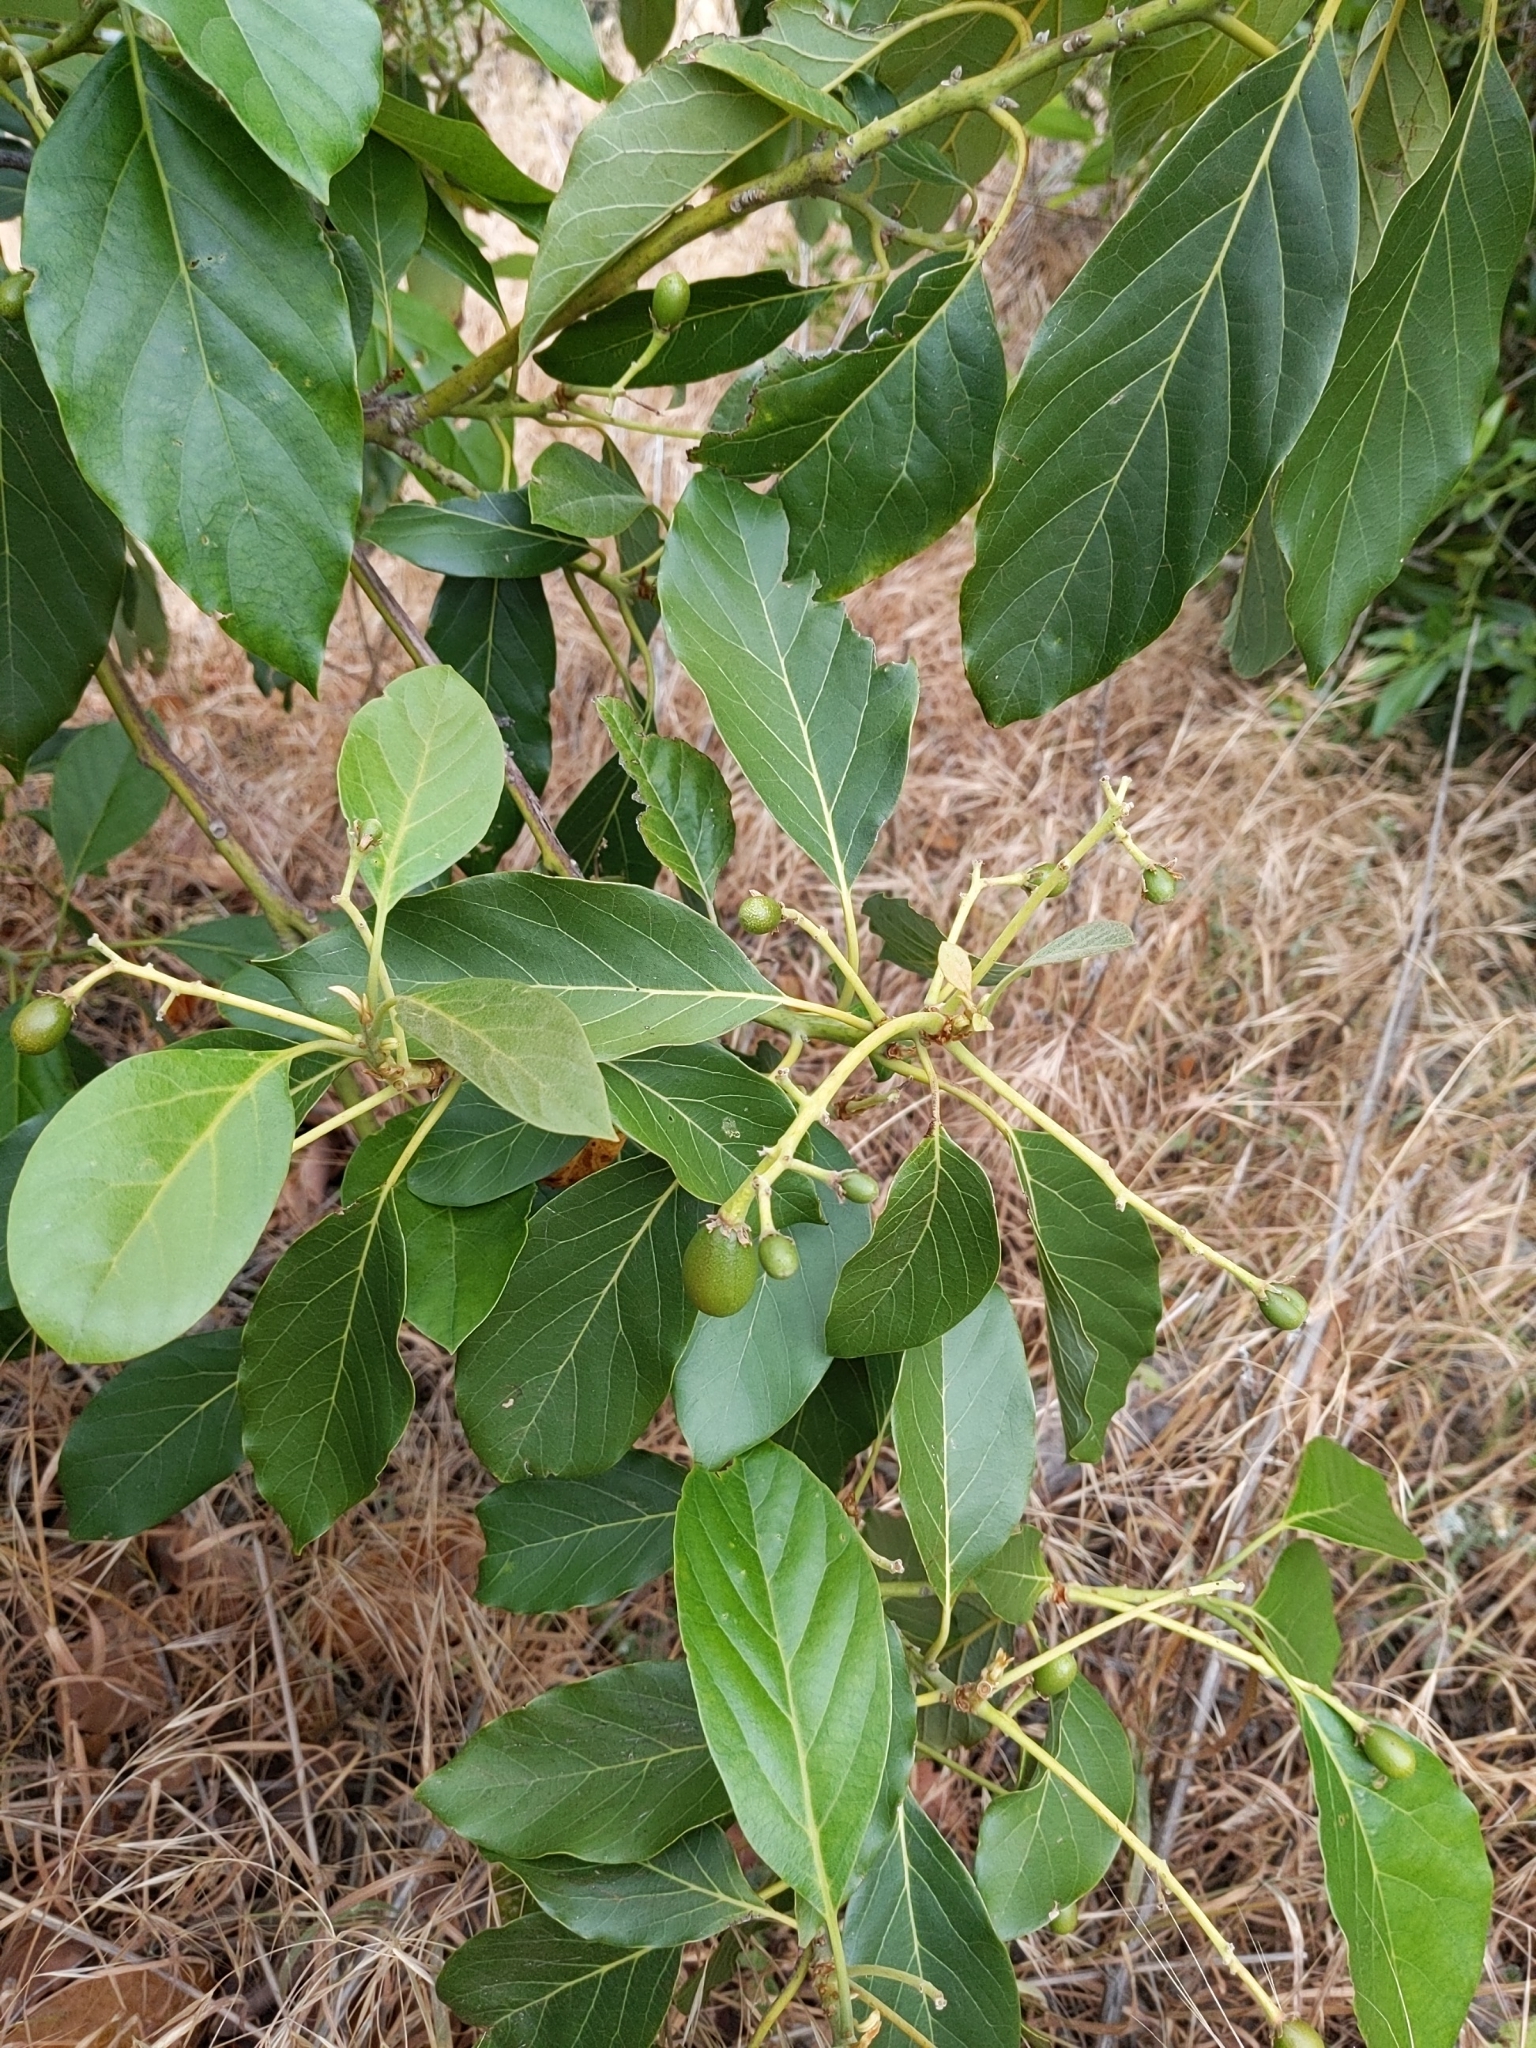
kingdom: Plantae
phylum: Tracheophyta
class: Magnoliopsida
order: Laurales
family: Lauraceae
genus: Persea
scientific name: Persea americana
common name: Avocado
